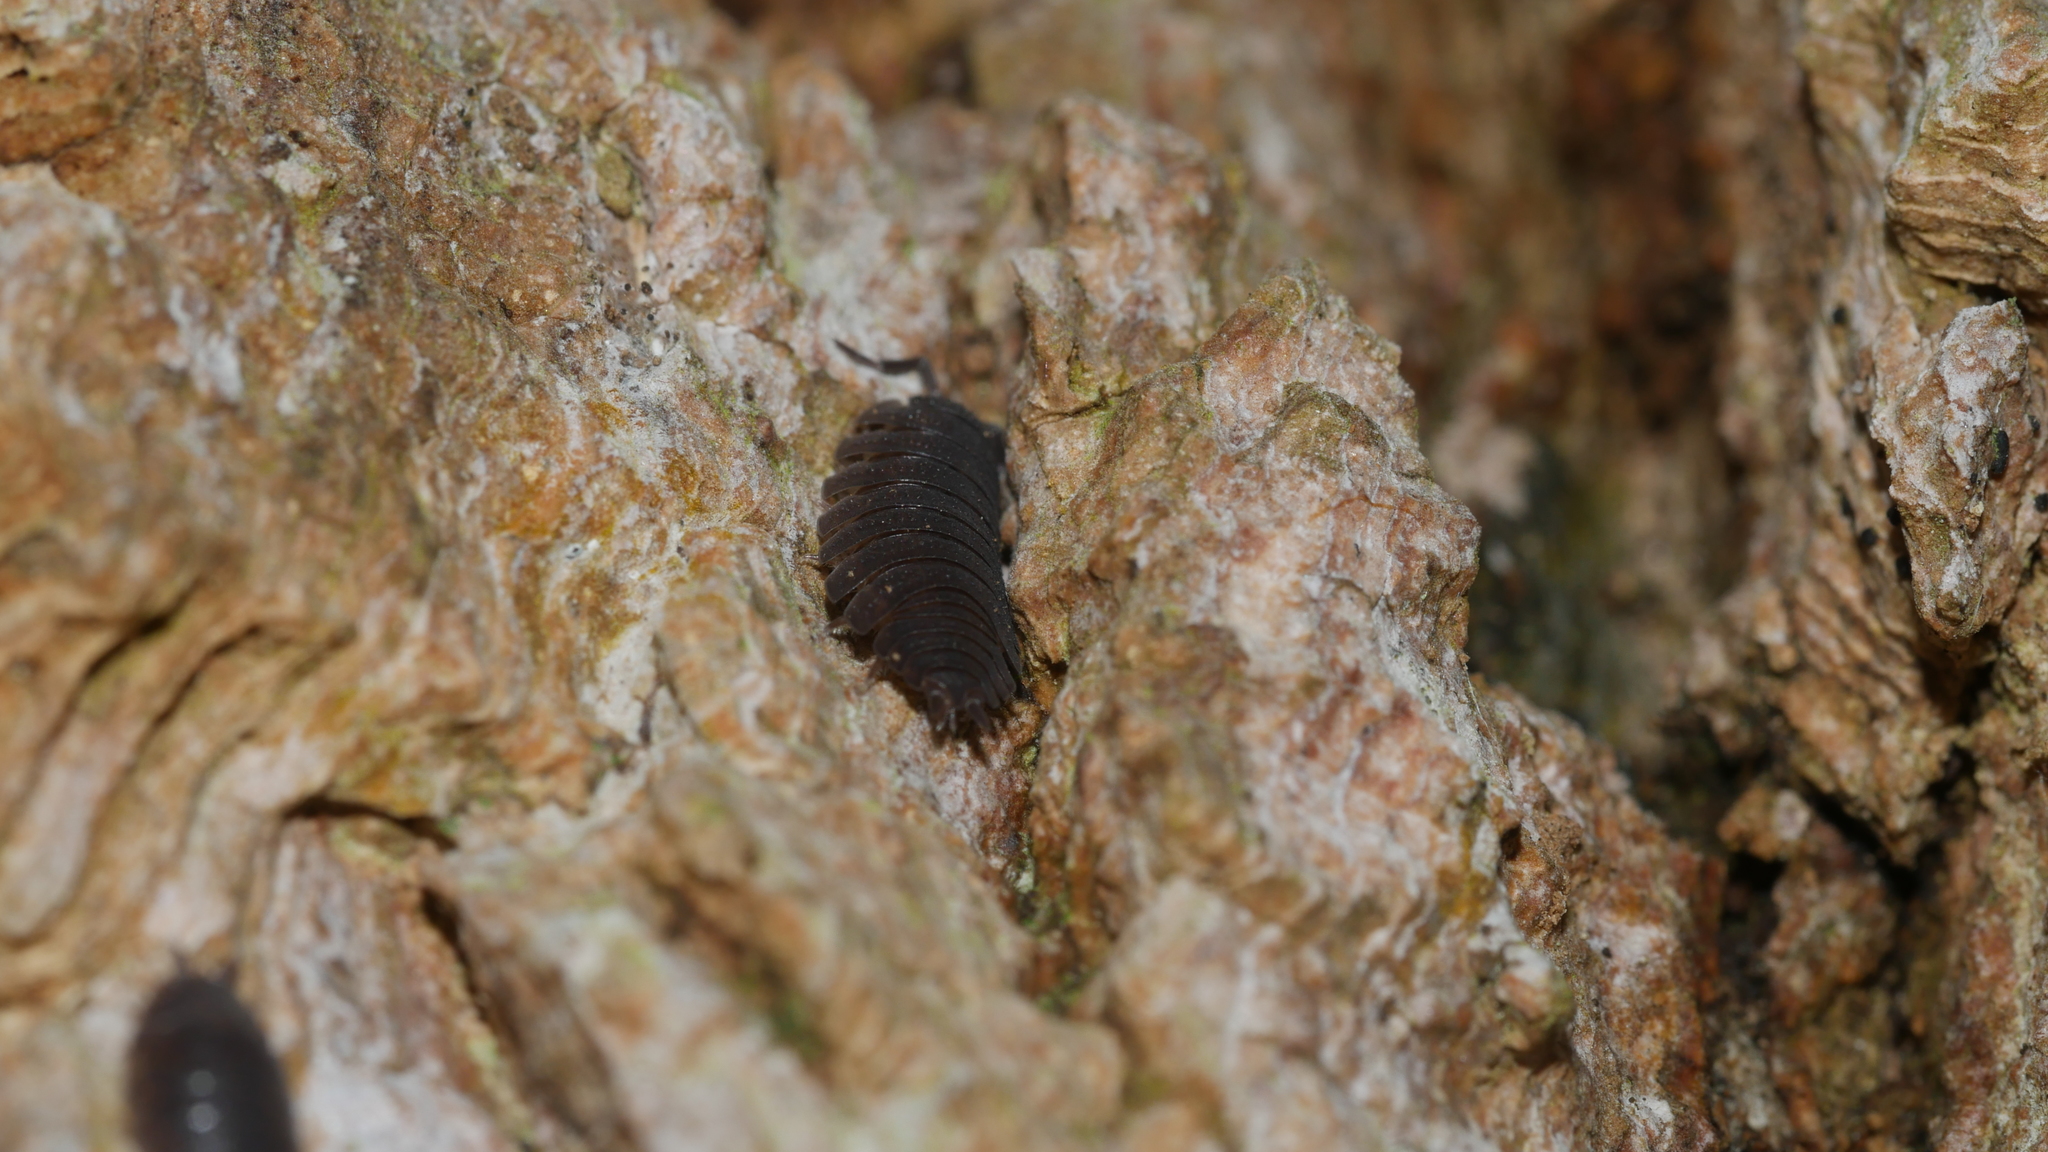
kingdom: Animalia
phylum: Arthropoda
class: Malacostraca
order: Isopoda
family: Porcellionidae
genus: Porcellio
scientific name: Porcellio scaber
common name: Common rough woodlouse
